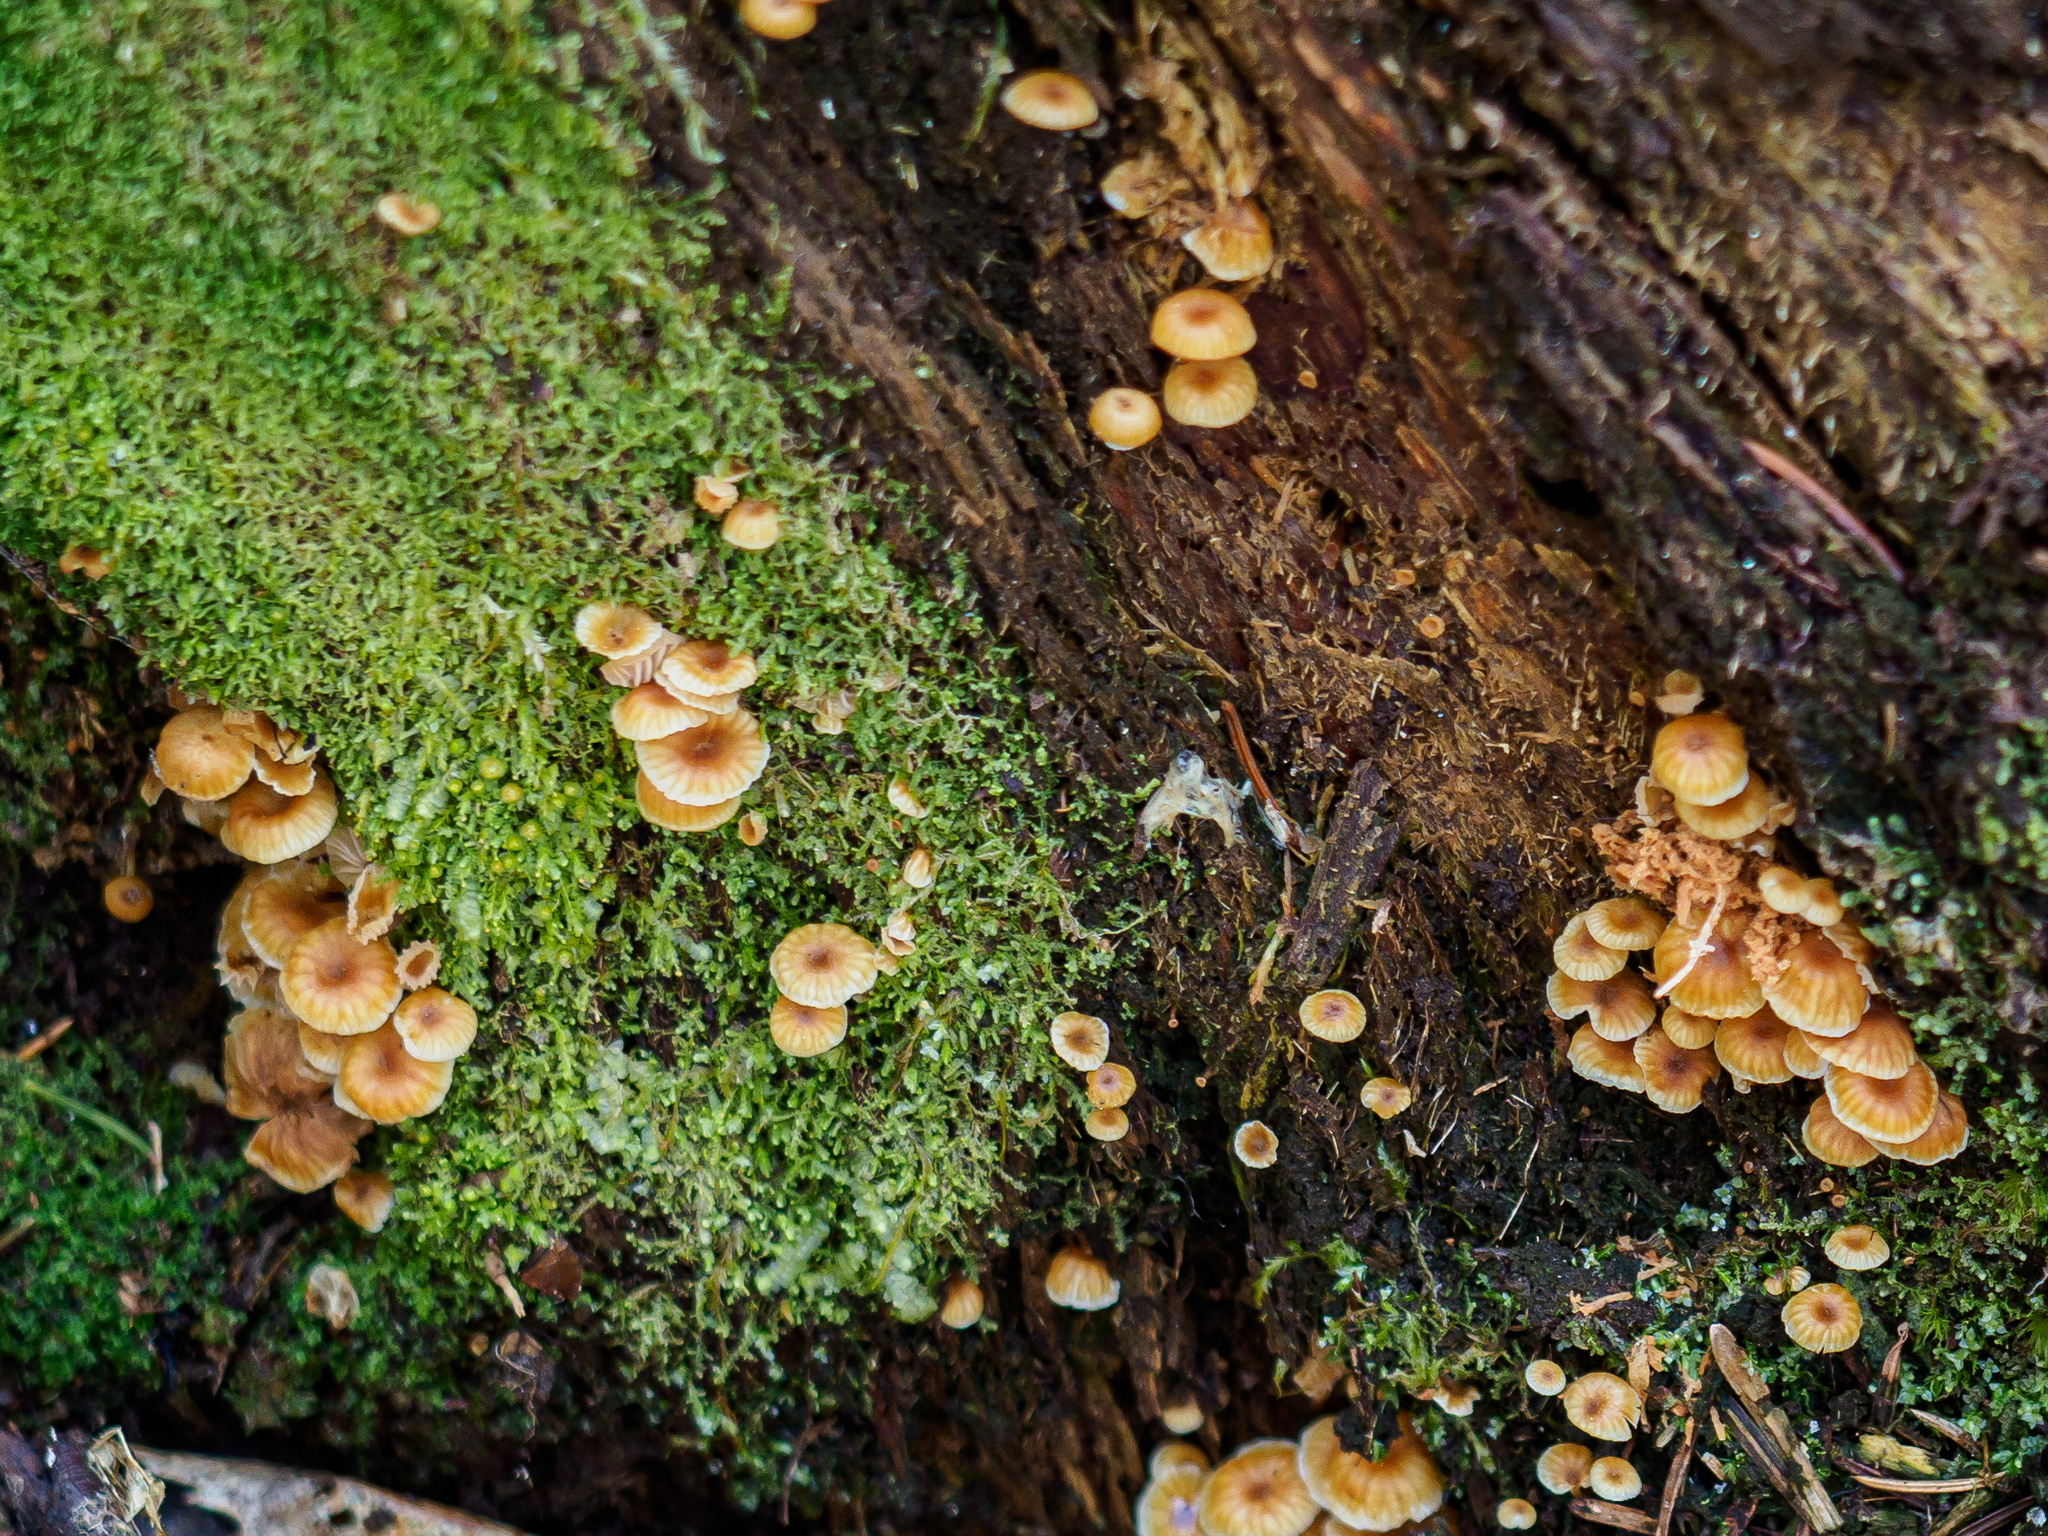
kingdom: Fungi
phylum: Basidiomycota
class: Agaricomycetes
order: Agaricales
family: Mycenaceae
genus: Xeromphalina
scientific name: Xeromphalina campanella
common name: Pinewood gingertail
